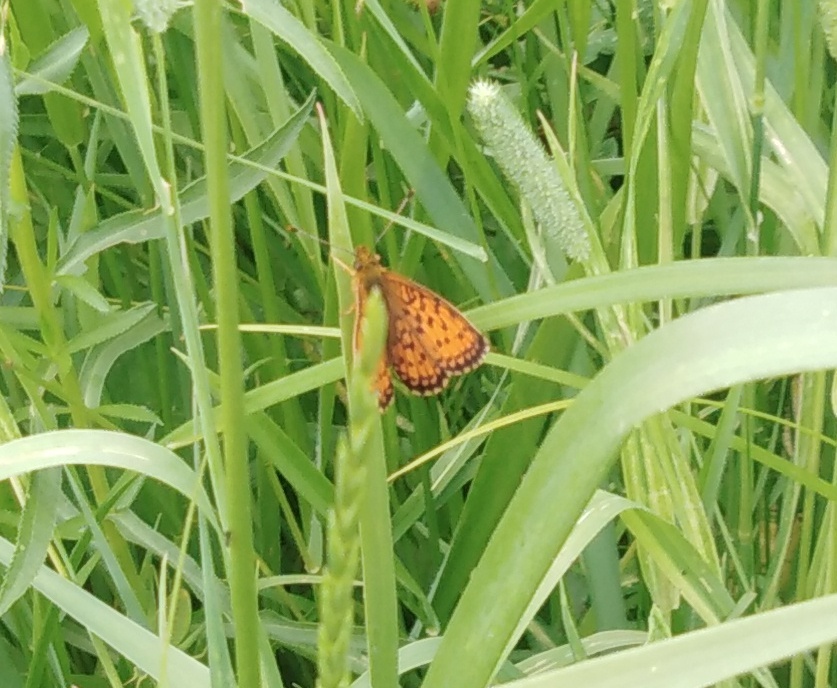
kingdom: Animalia
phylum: Arthropoda
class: Insecta
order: Lepidoptera
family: Nymphalidae
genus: Brenthis
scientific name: Brenthis ino
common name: Lesser marbled fritillary
